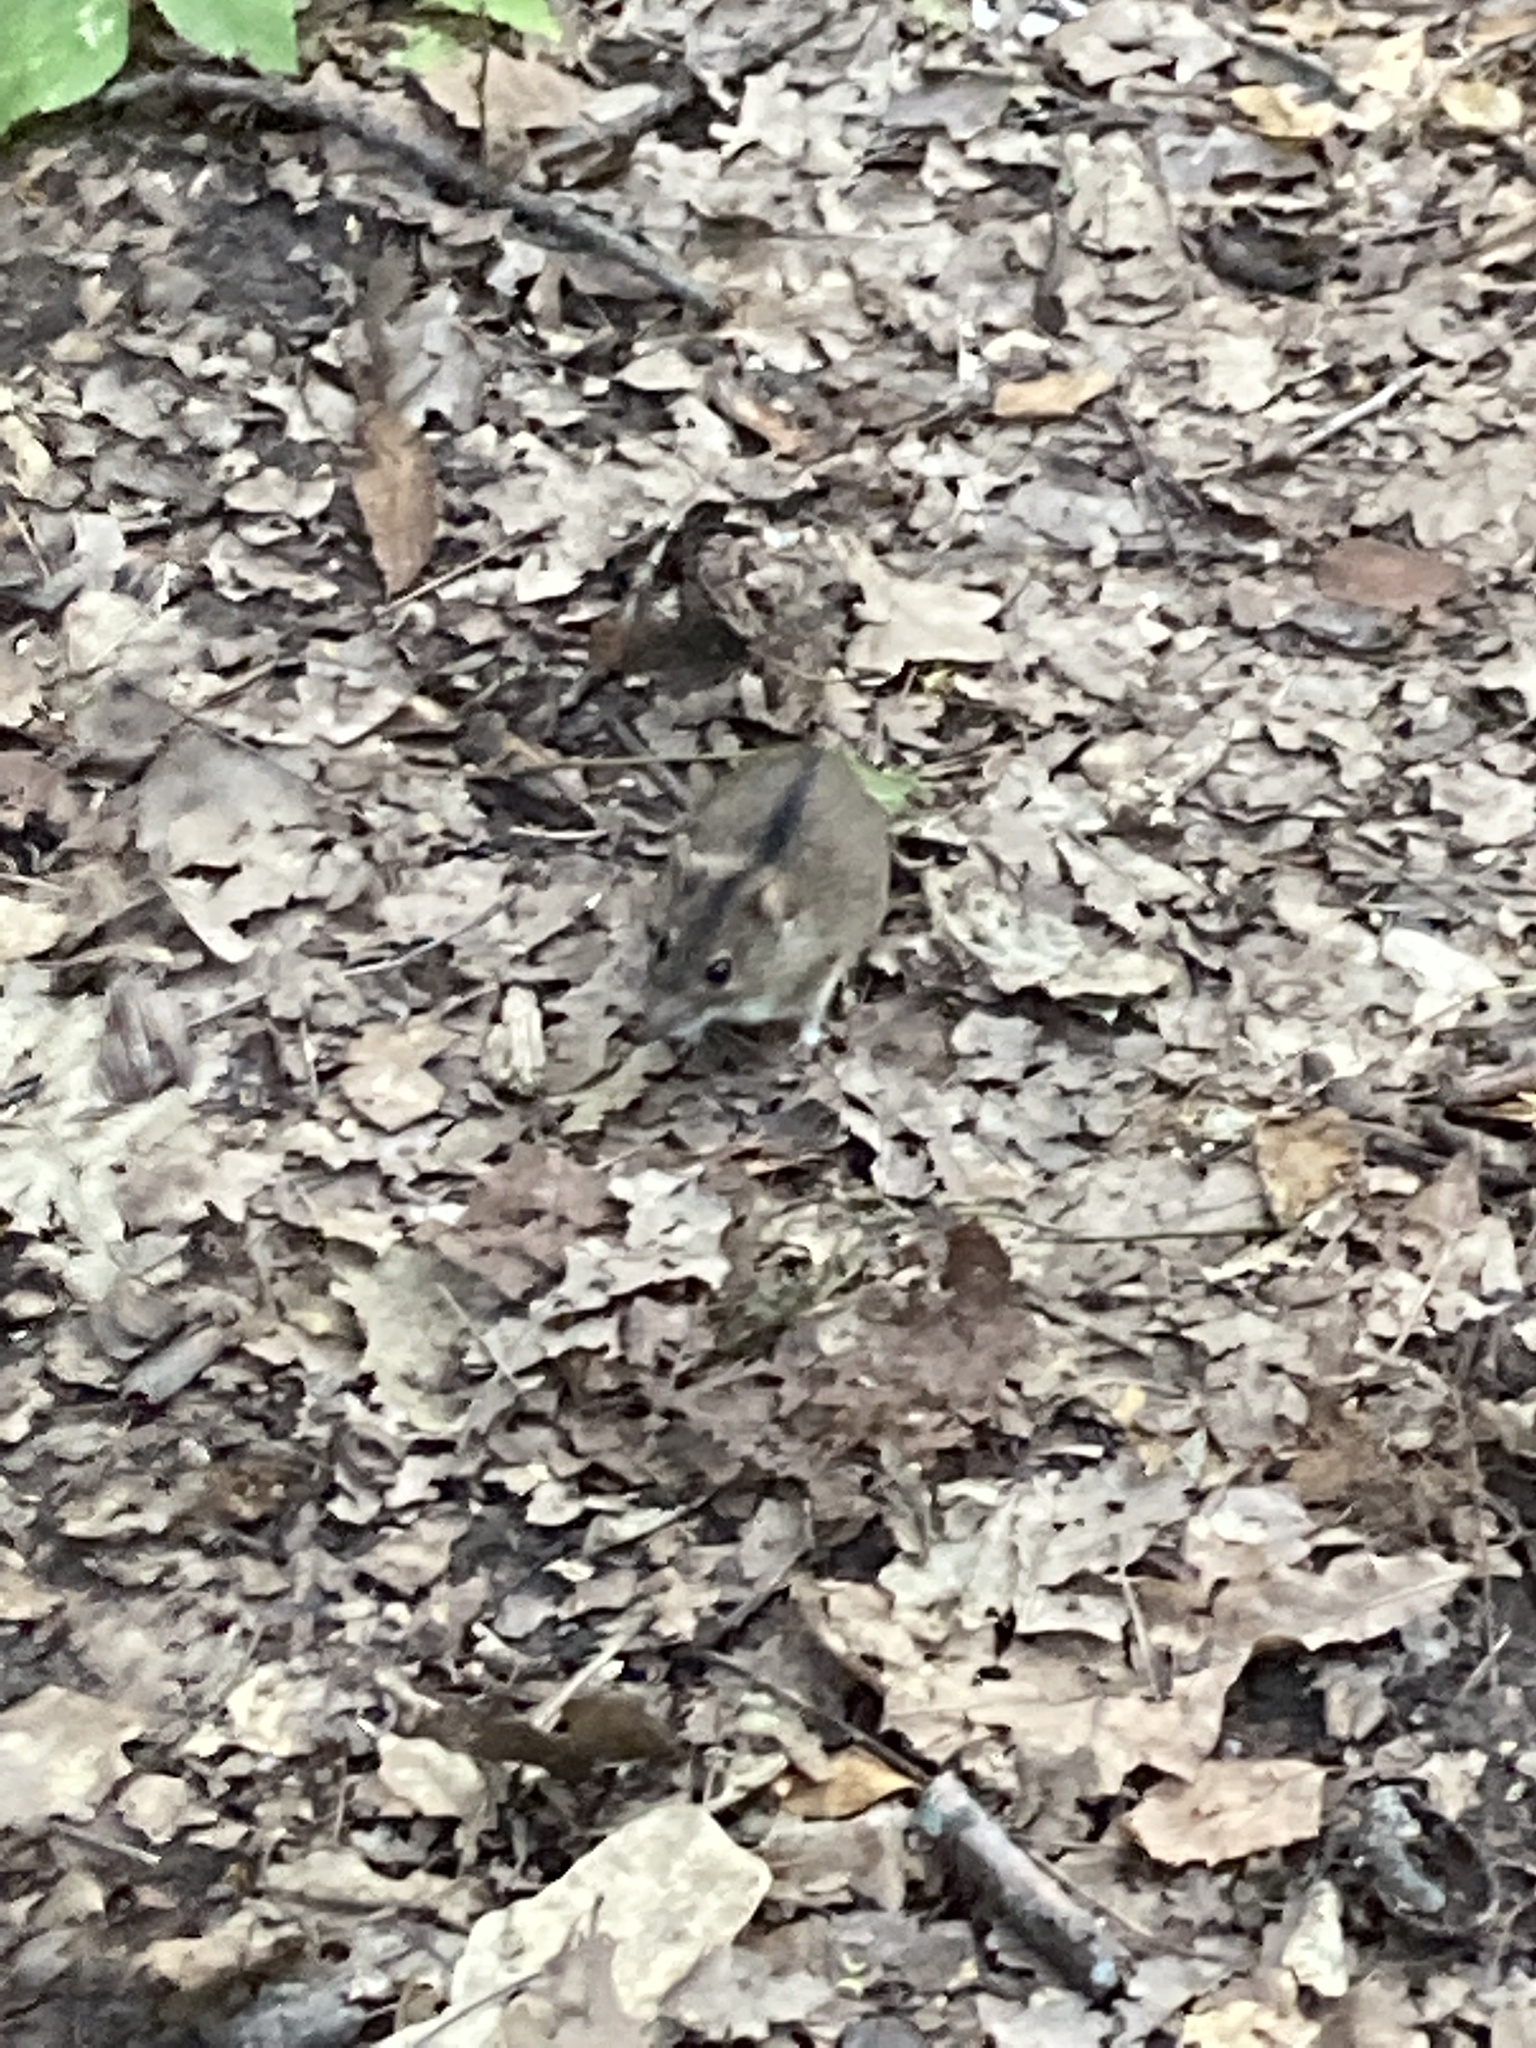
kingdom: Animalia
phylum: Chordata
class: Mammalia
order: Rodentia
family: Muridae
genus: Apodemus
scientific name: Apodemus agrarius
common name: Striped field mouse
